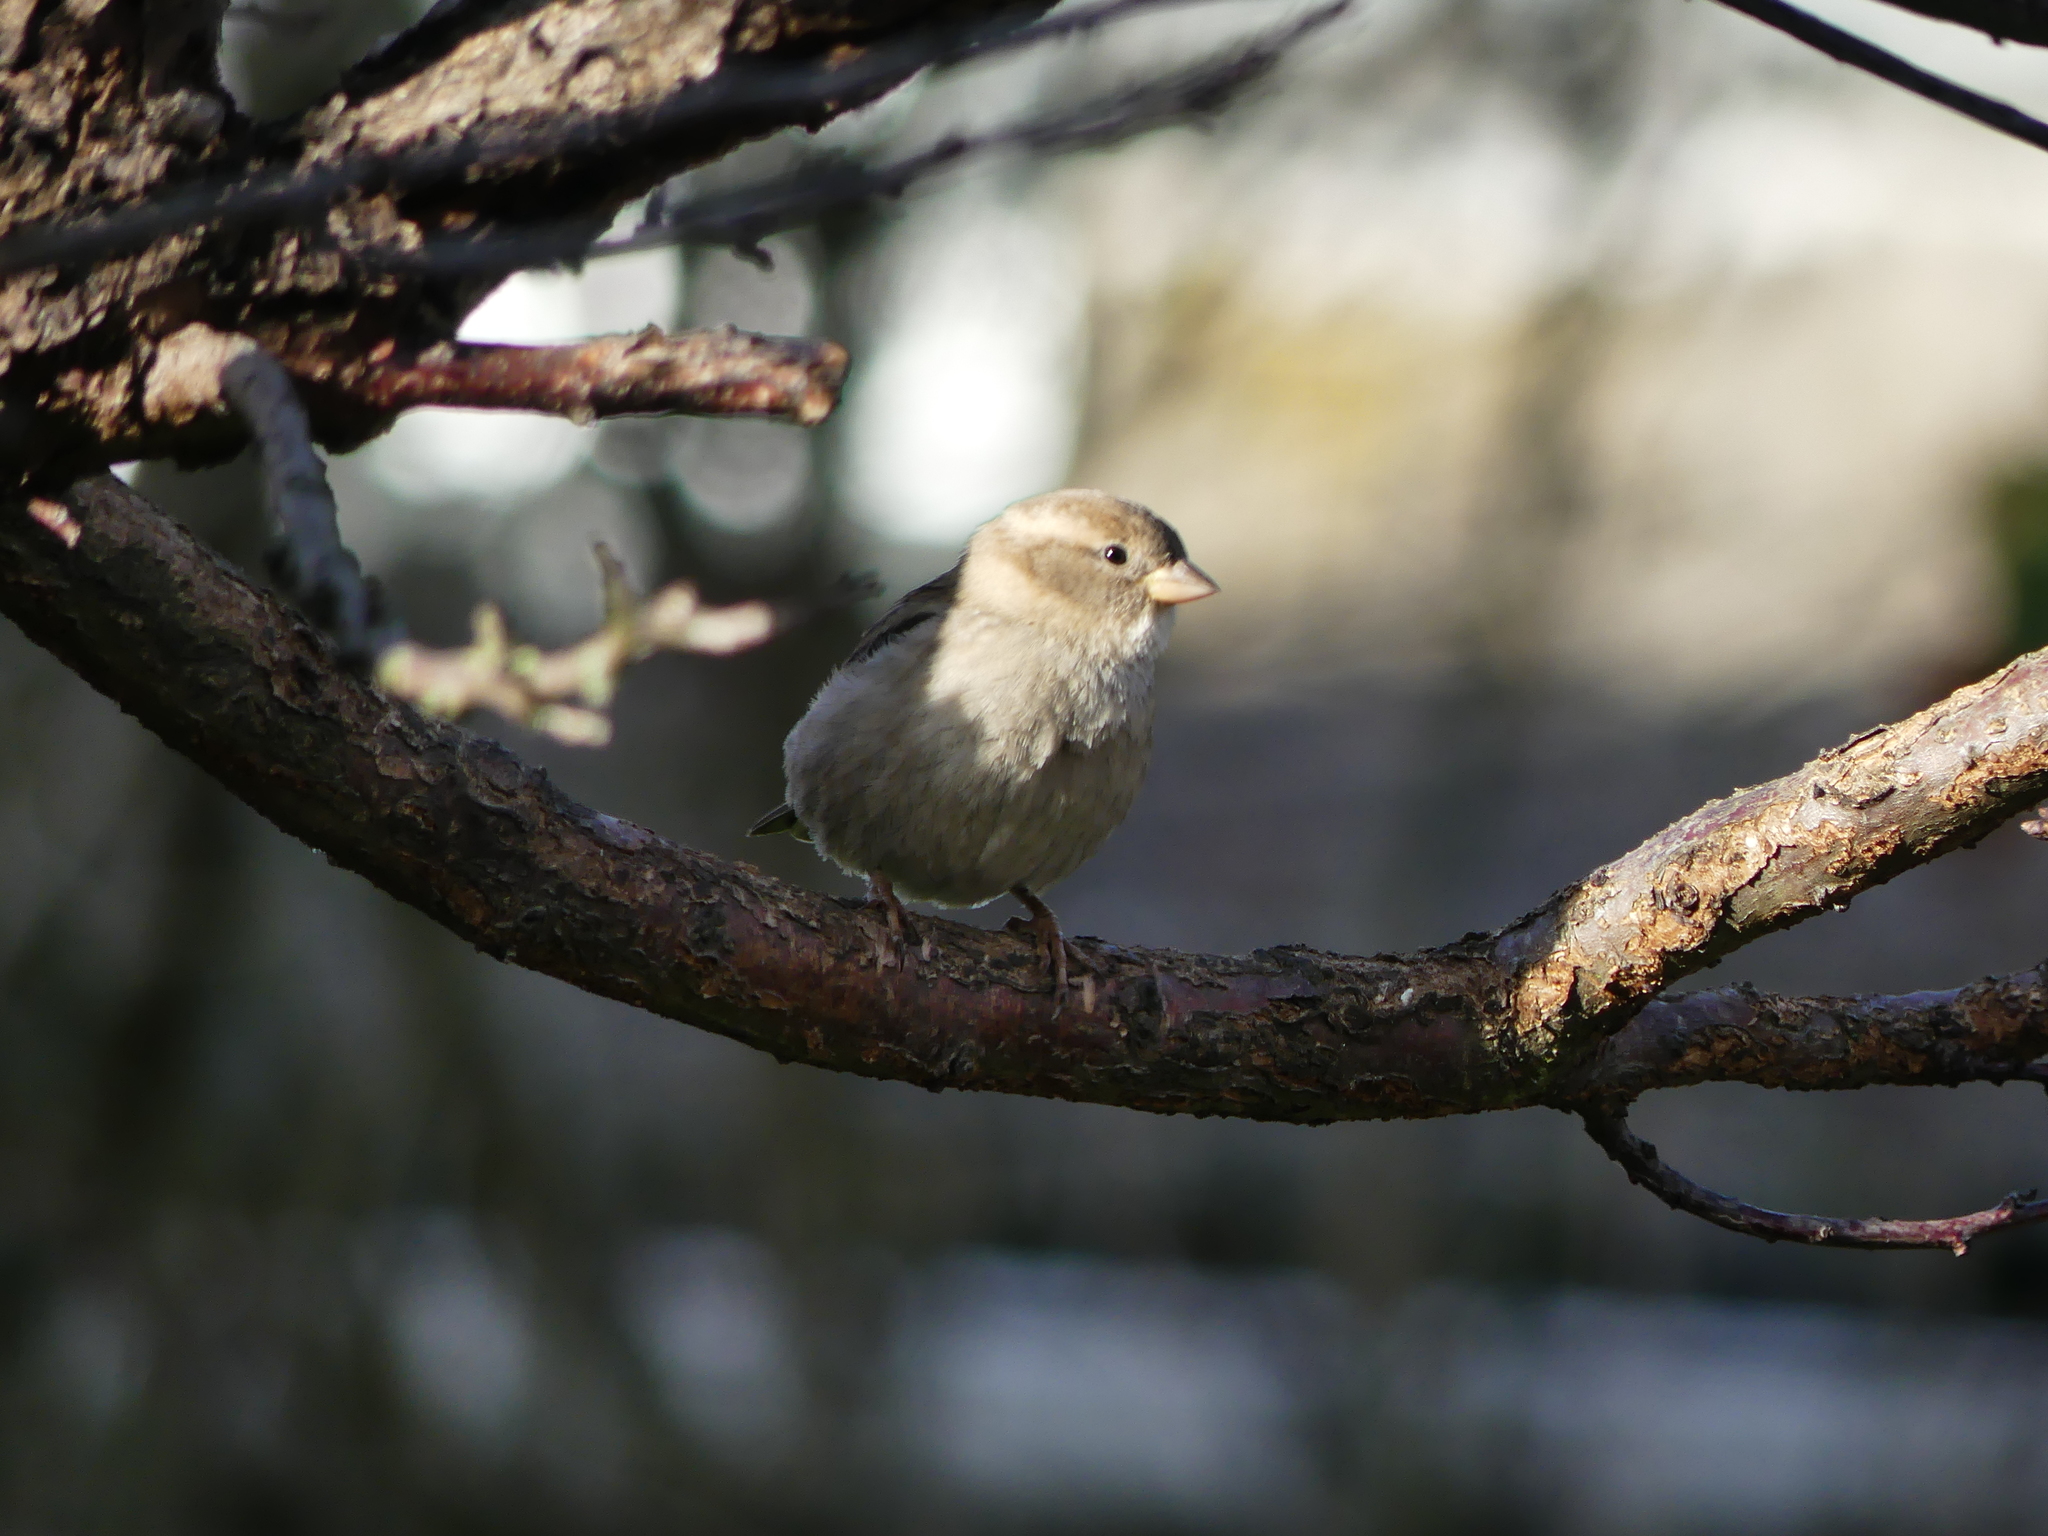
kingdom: Animalia
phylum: Chordata
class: Aves
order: Passeriformes
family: Passeridae
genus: Passer
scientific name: Passer domesticus
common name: House sparrow
